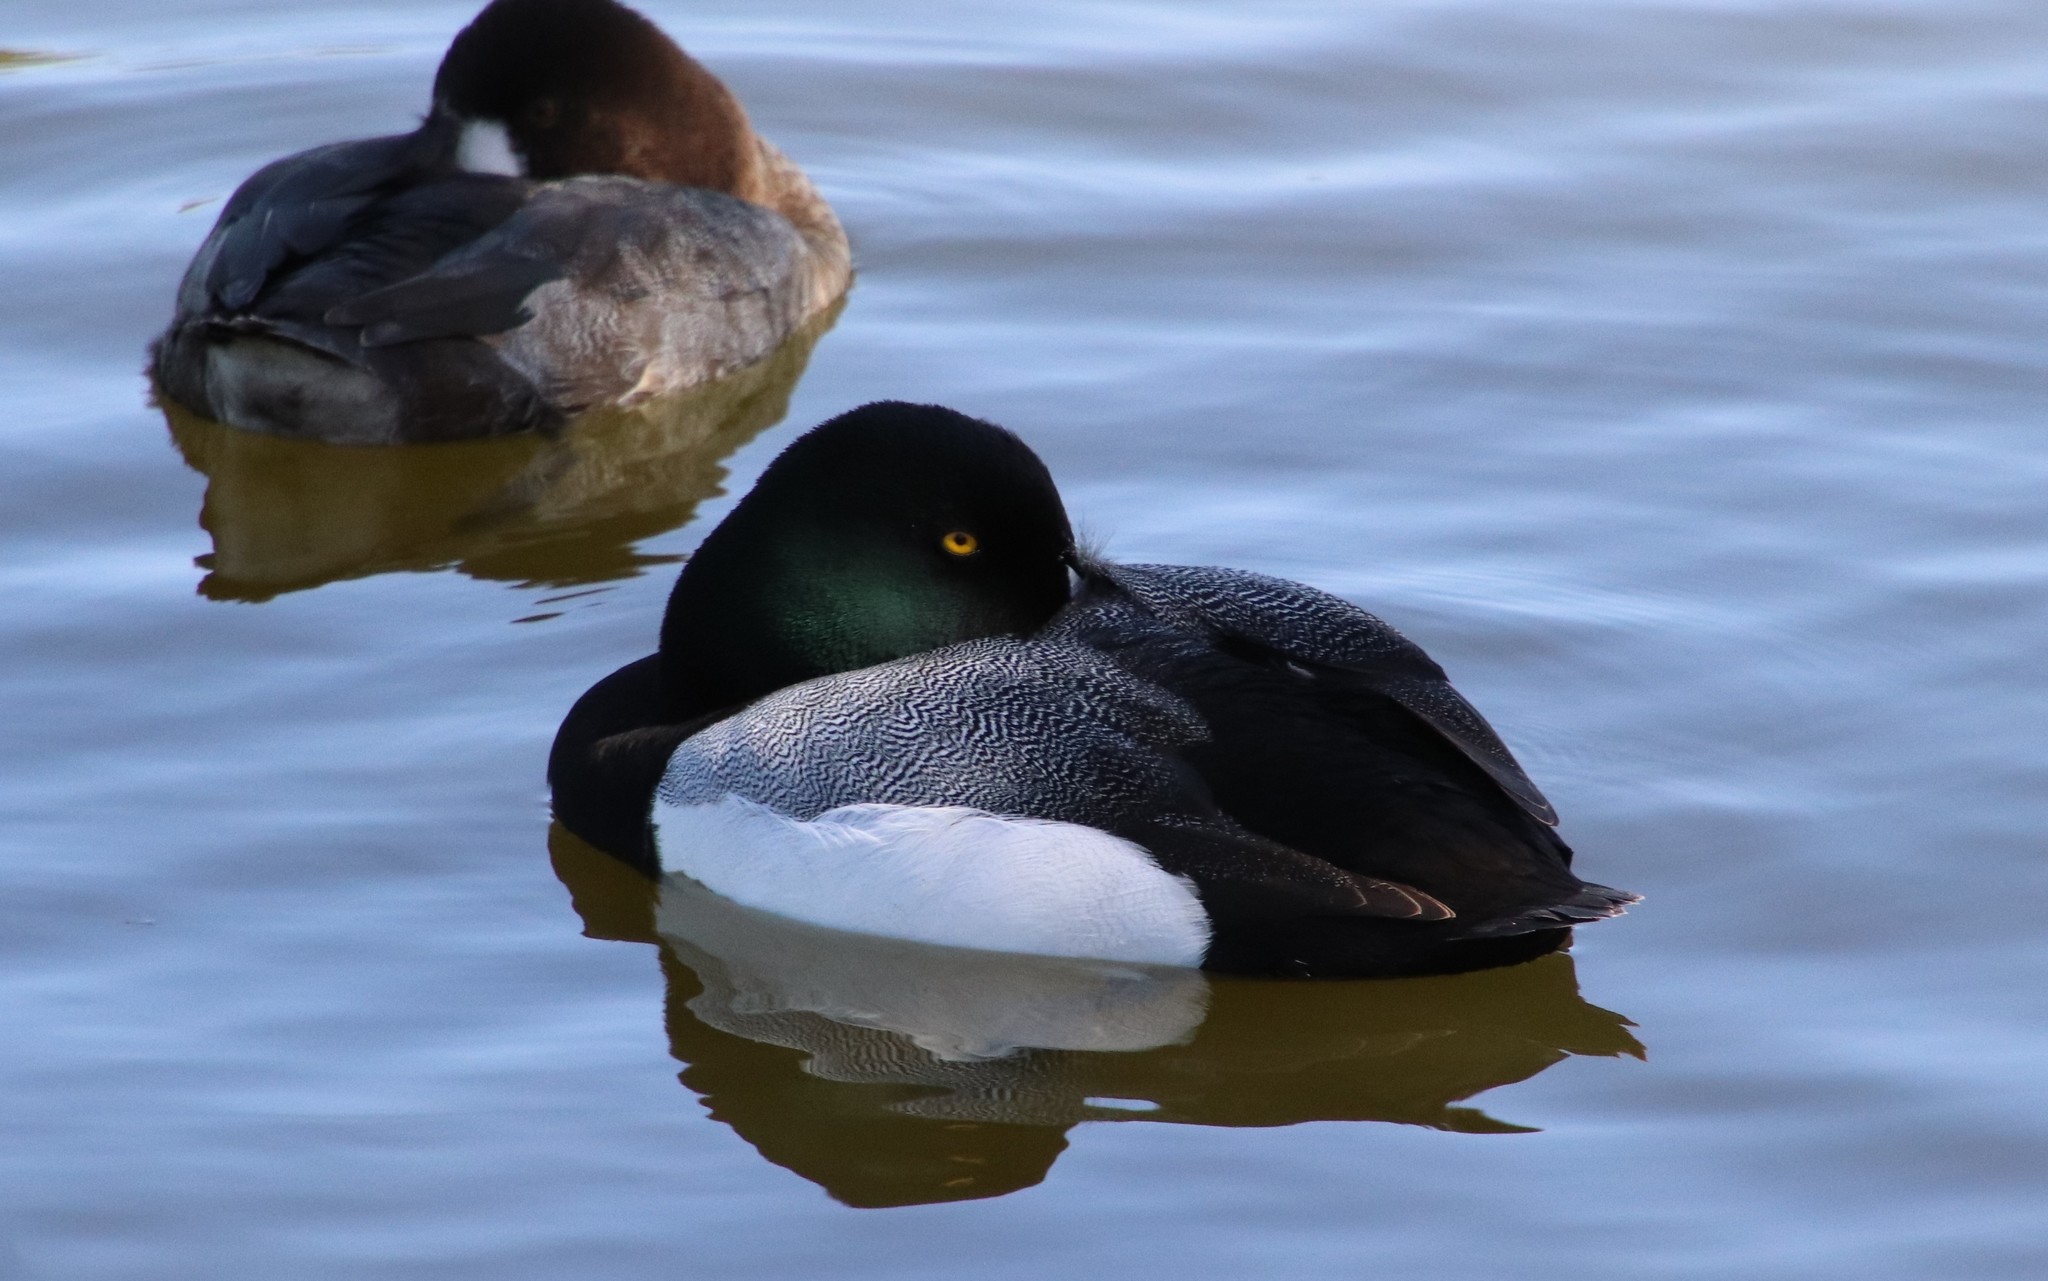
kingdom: Animalia
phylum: Chordata
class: Aves
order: Anseriformes
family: Anatidae
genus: Aythya
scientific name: Aythya marila
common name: Greater scaup
